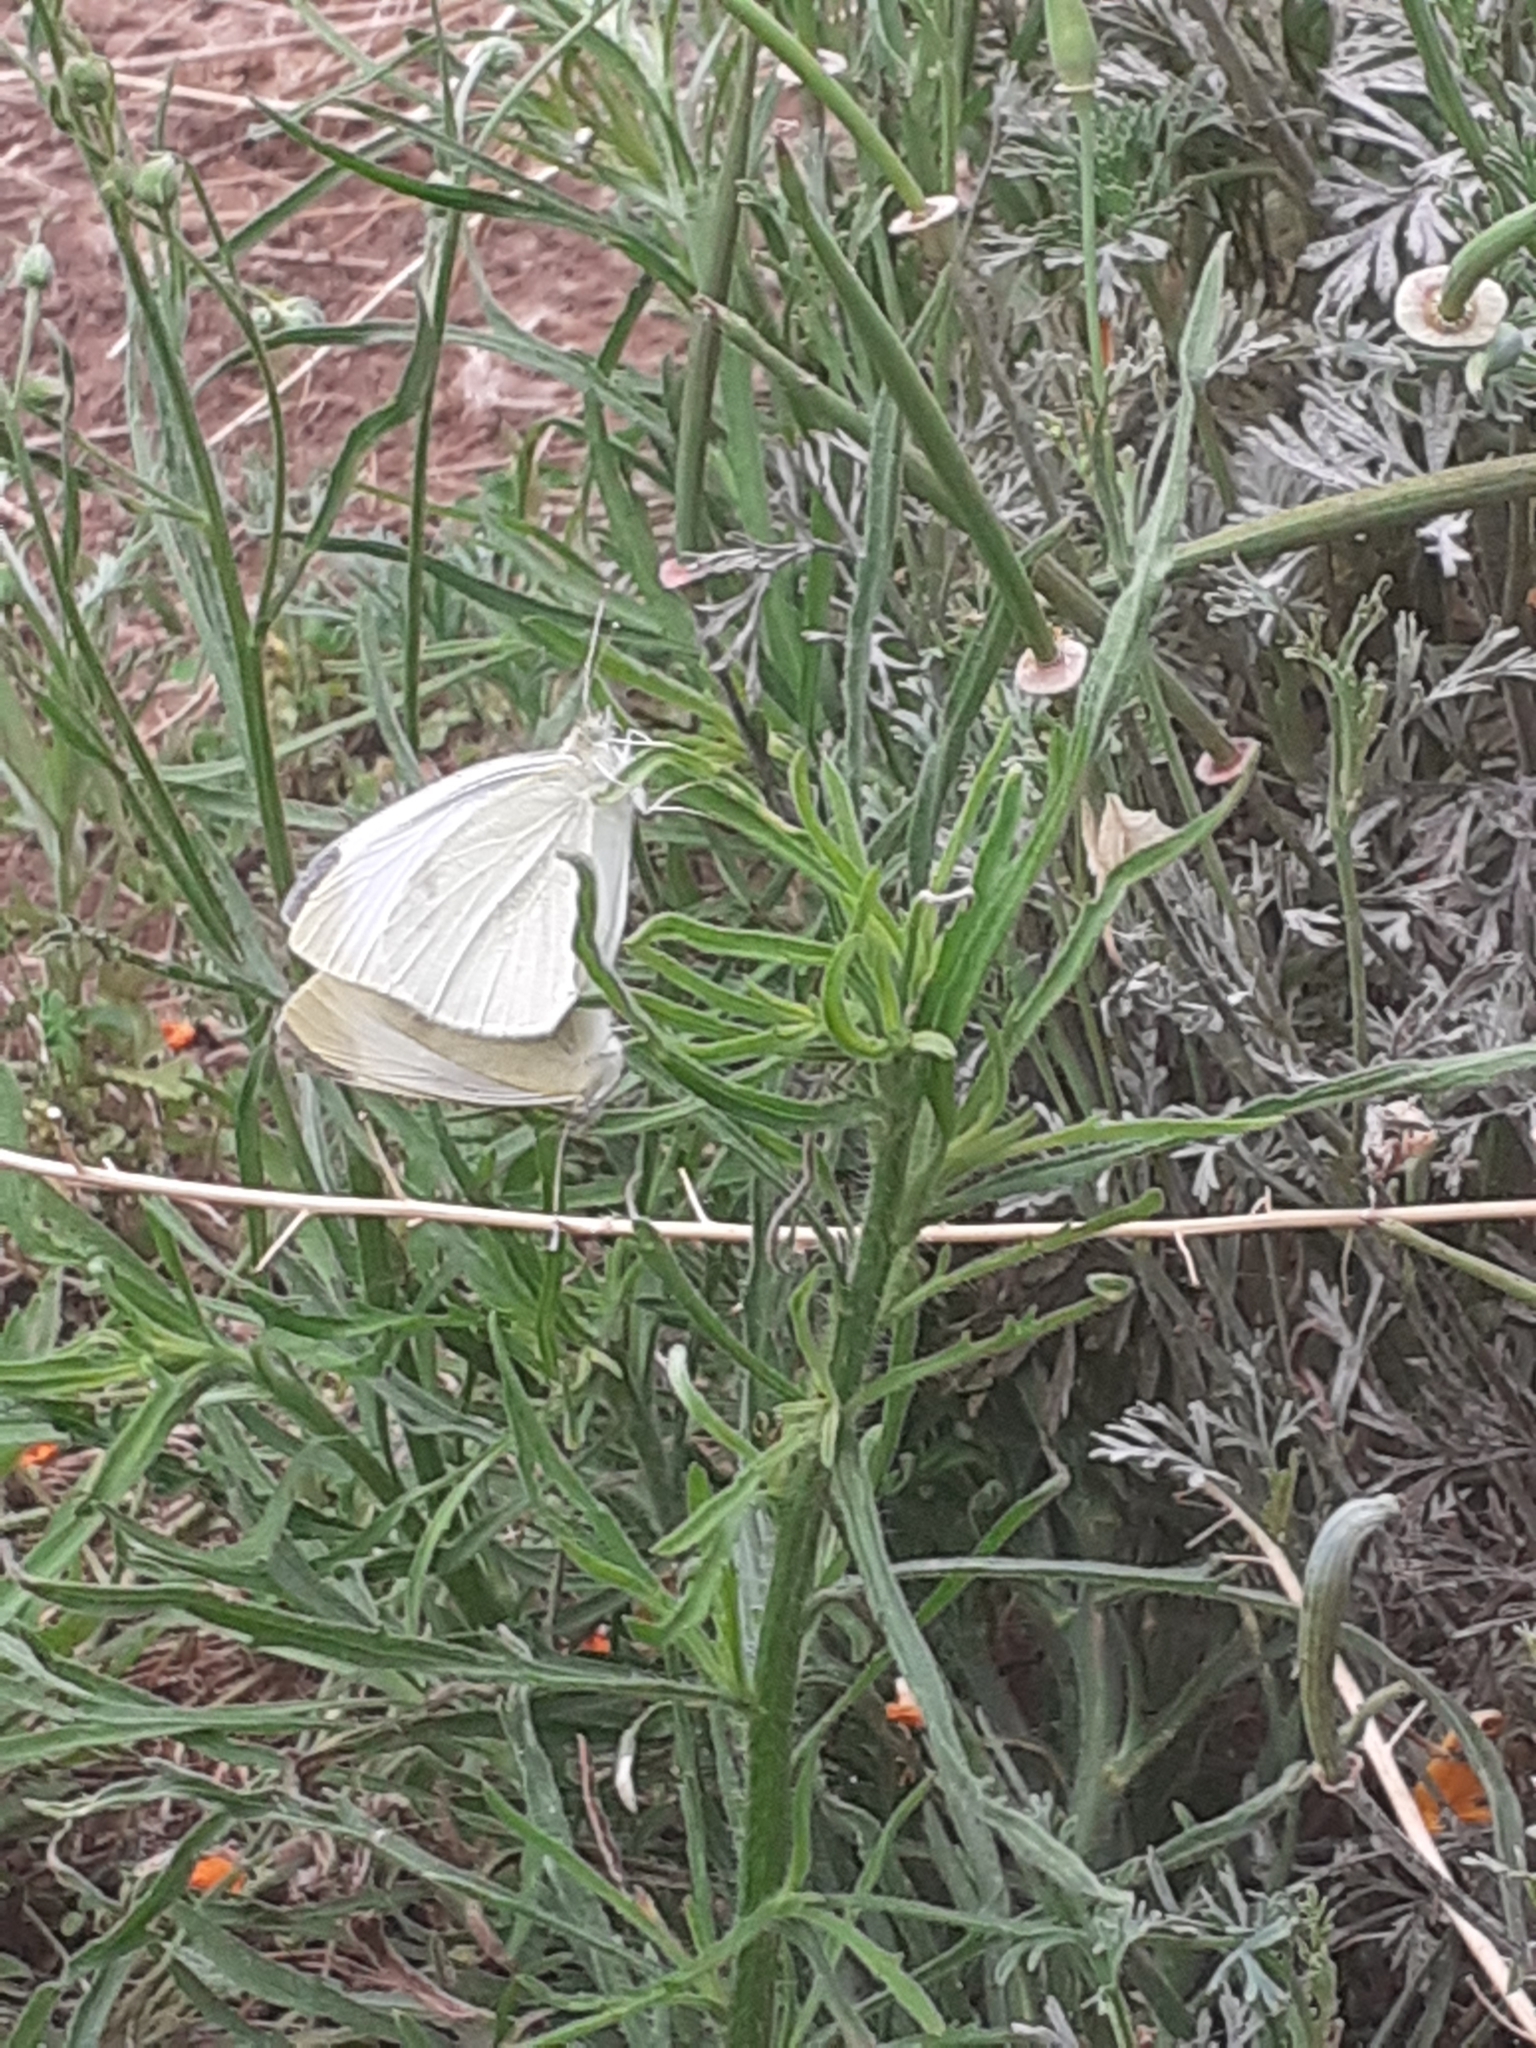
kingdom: Animalia
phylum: Arthropoda
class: Insecta
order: Lepidoptera
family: Pieridae
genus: Pieris
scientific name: Pieris rapae
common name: Small white
